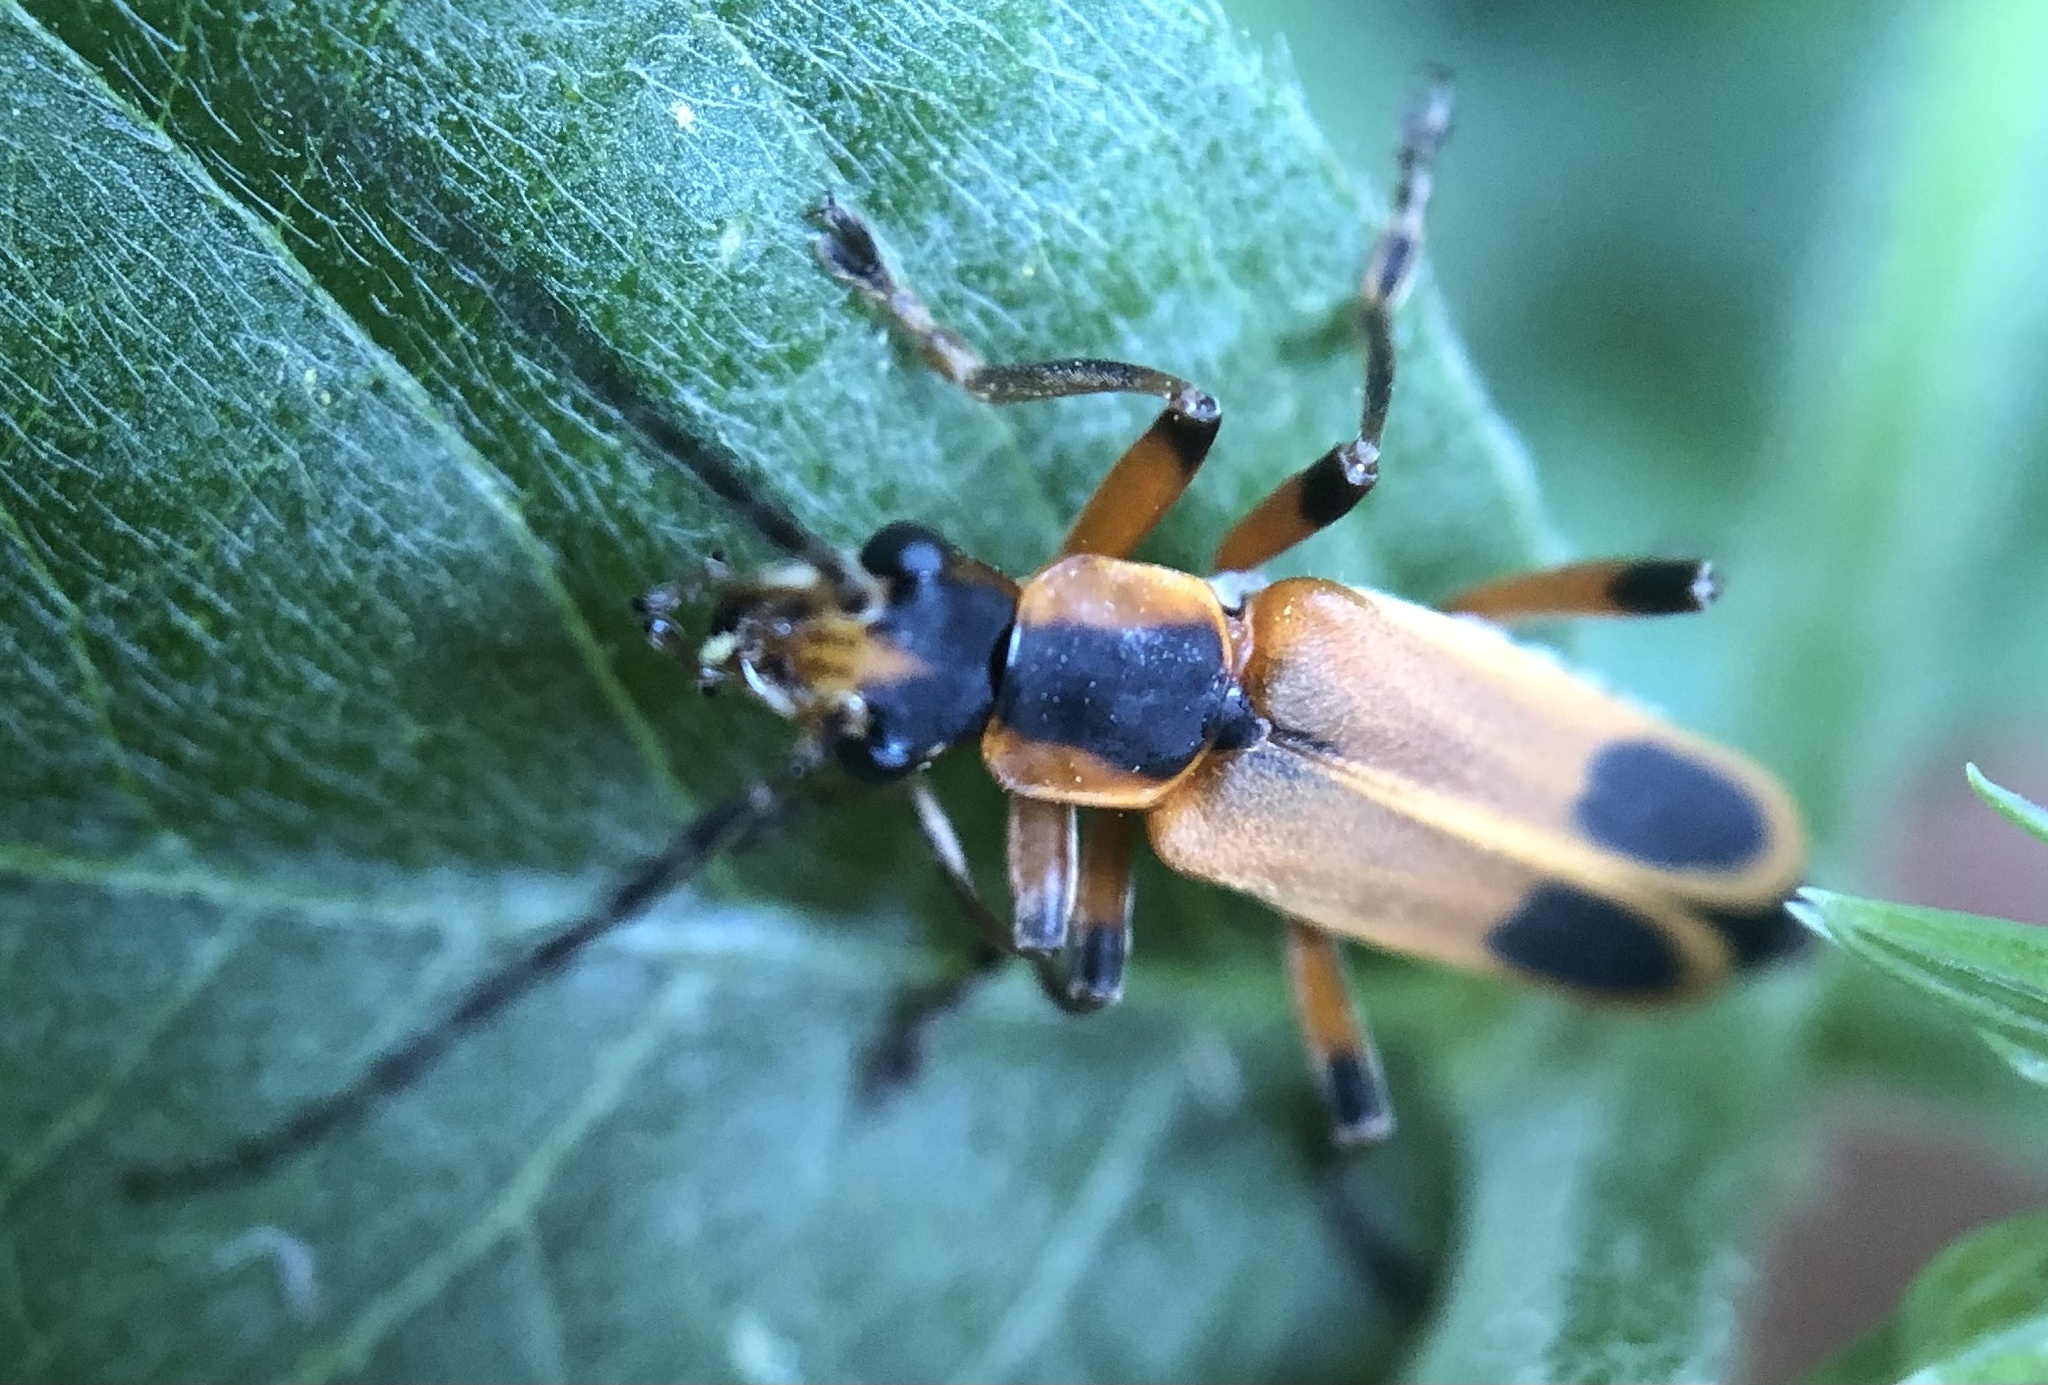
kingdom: Animalia
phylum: Arthropoda
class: Insecta
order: Coleoptera
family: Cantharidae
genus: Chauliognathus
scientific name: Chauliognathus marginatus
